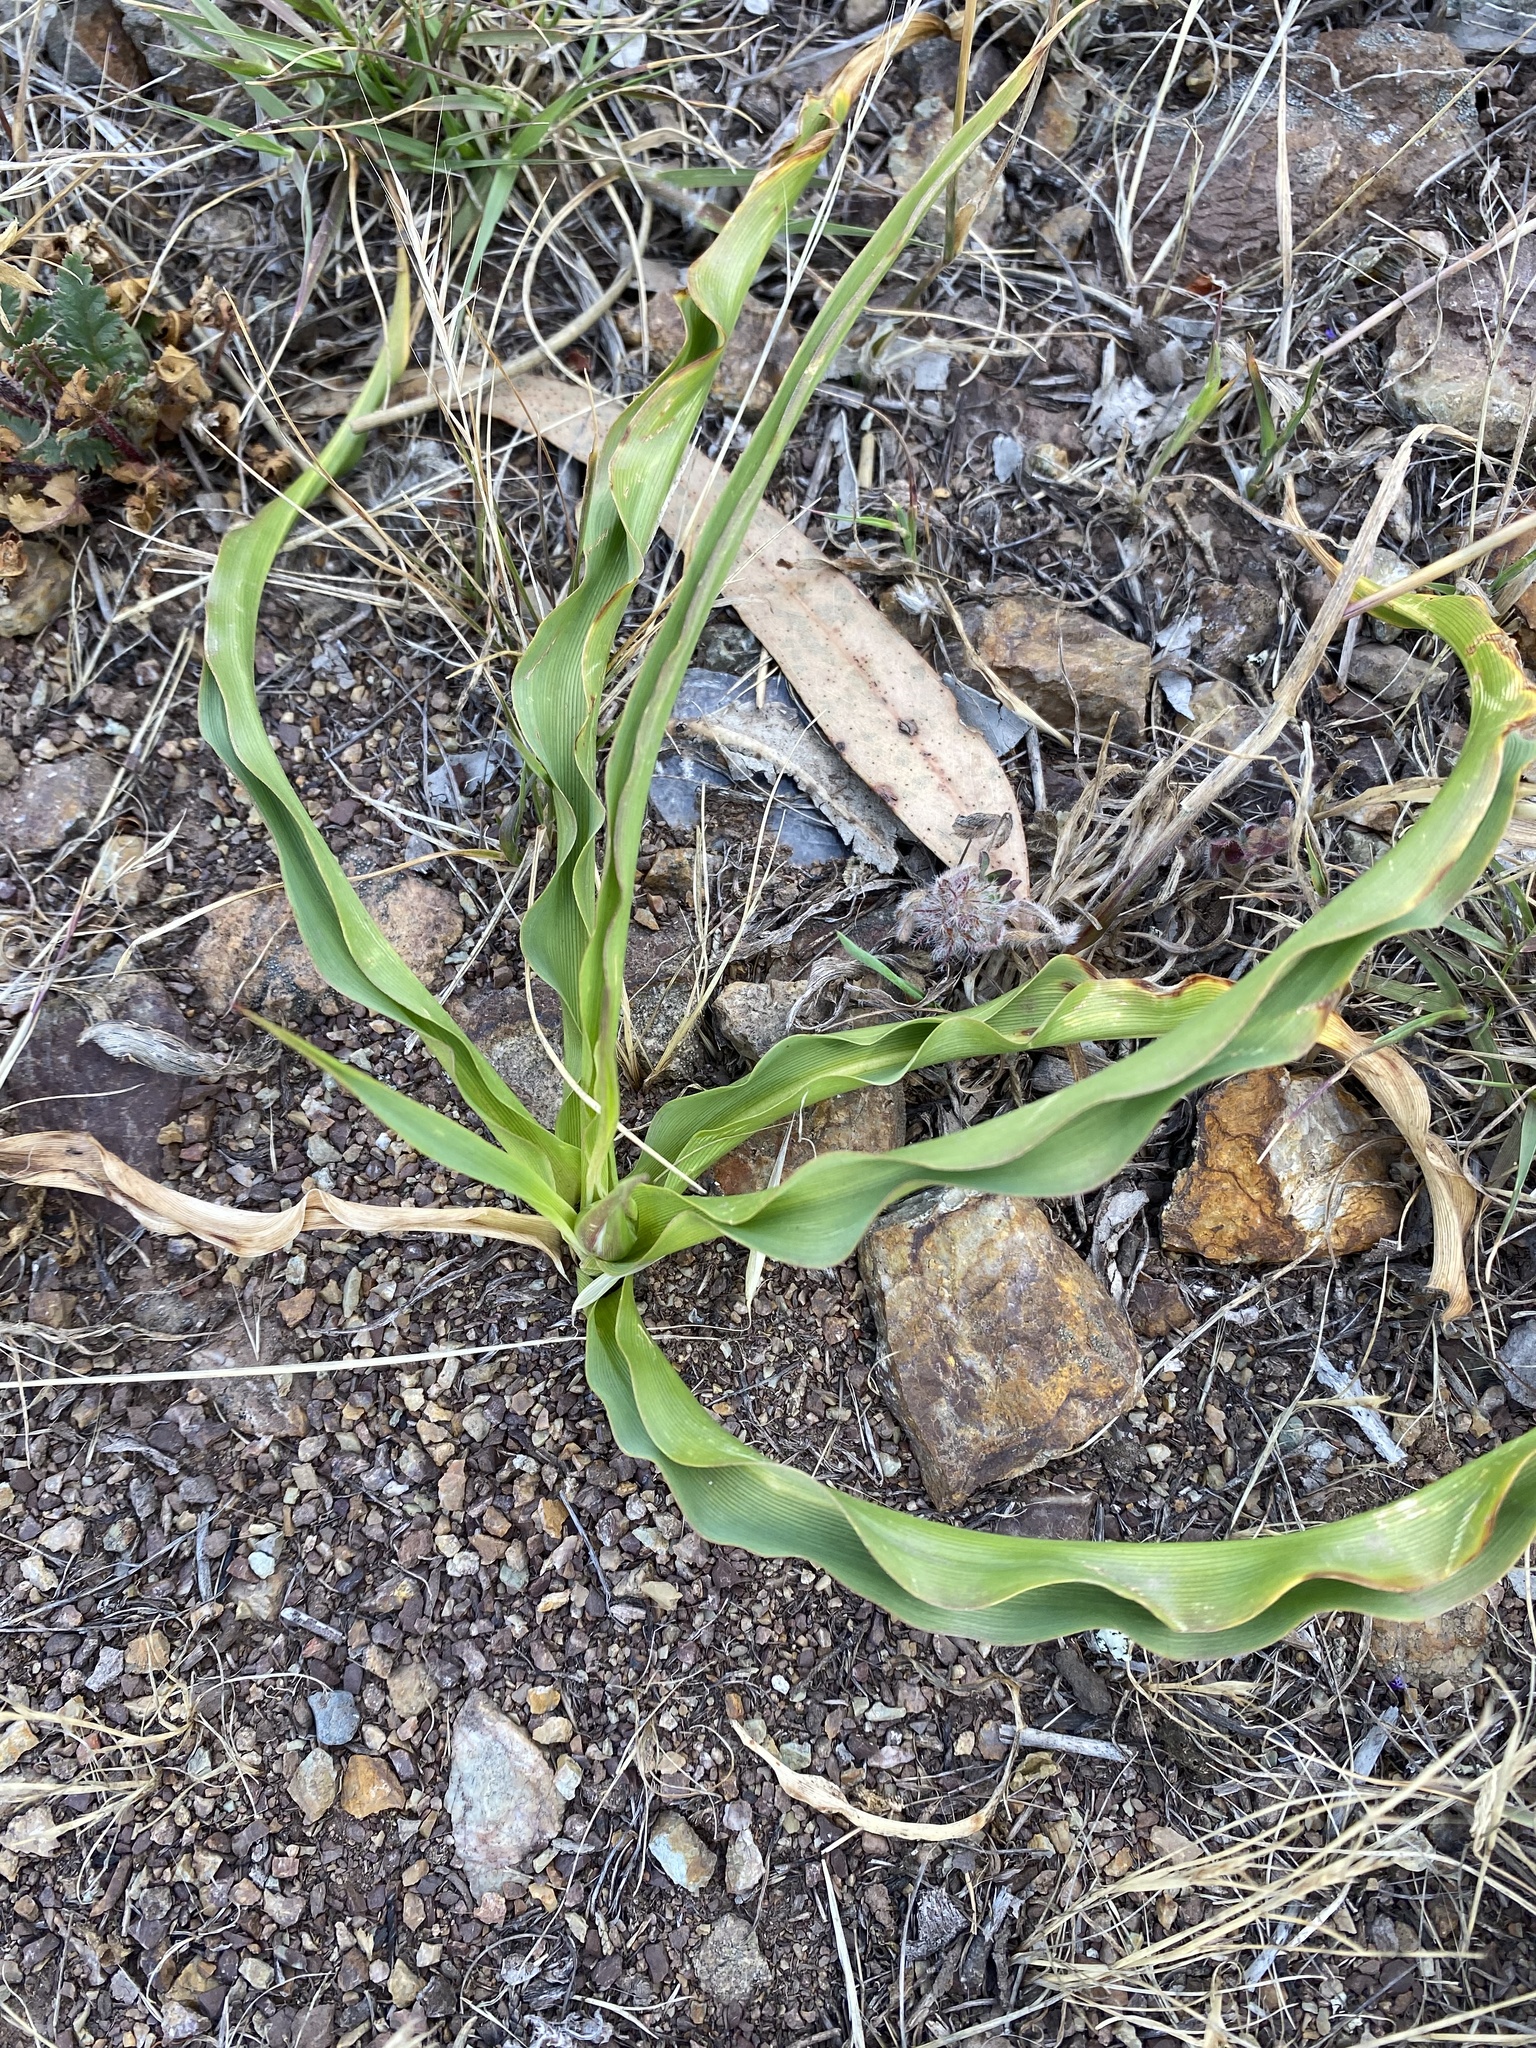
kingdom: Plantae
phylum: Tracheophyta
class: Liliopsida
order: Asparagales
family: Asparagaceae
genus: Chlorogalum
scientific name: Chlorogalum pomeridianum
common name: Amole
